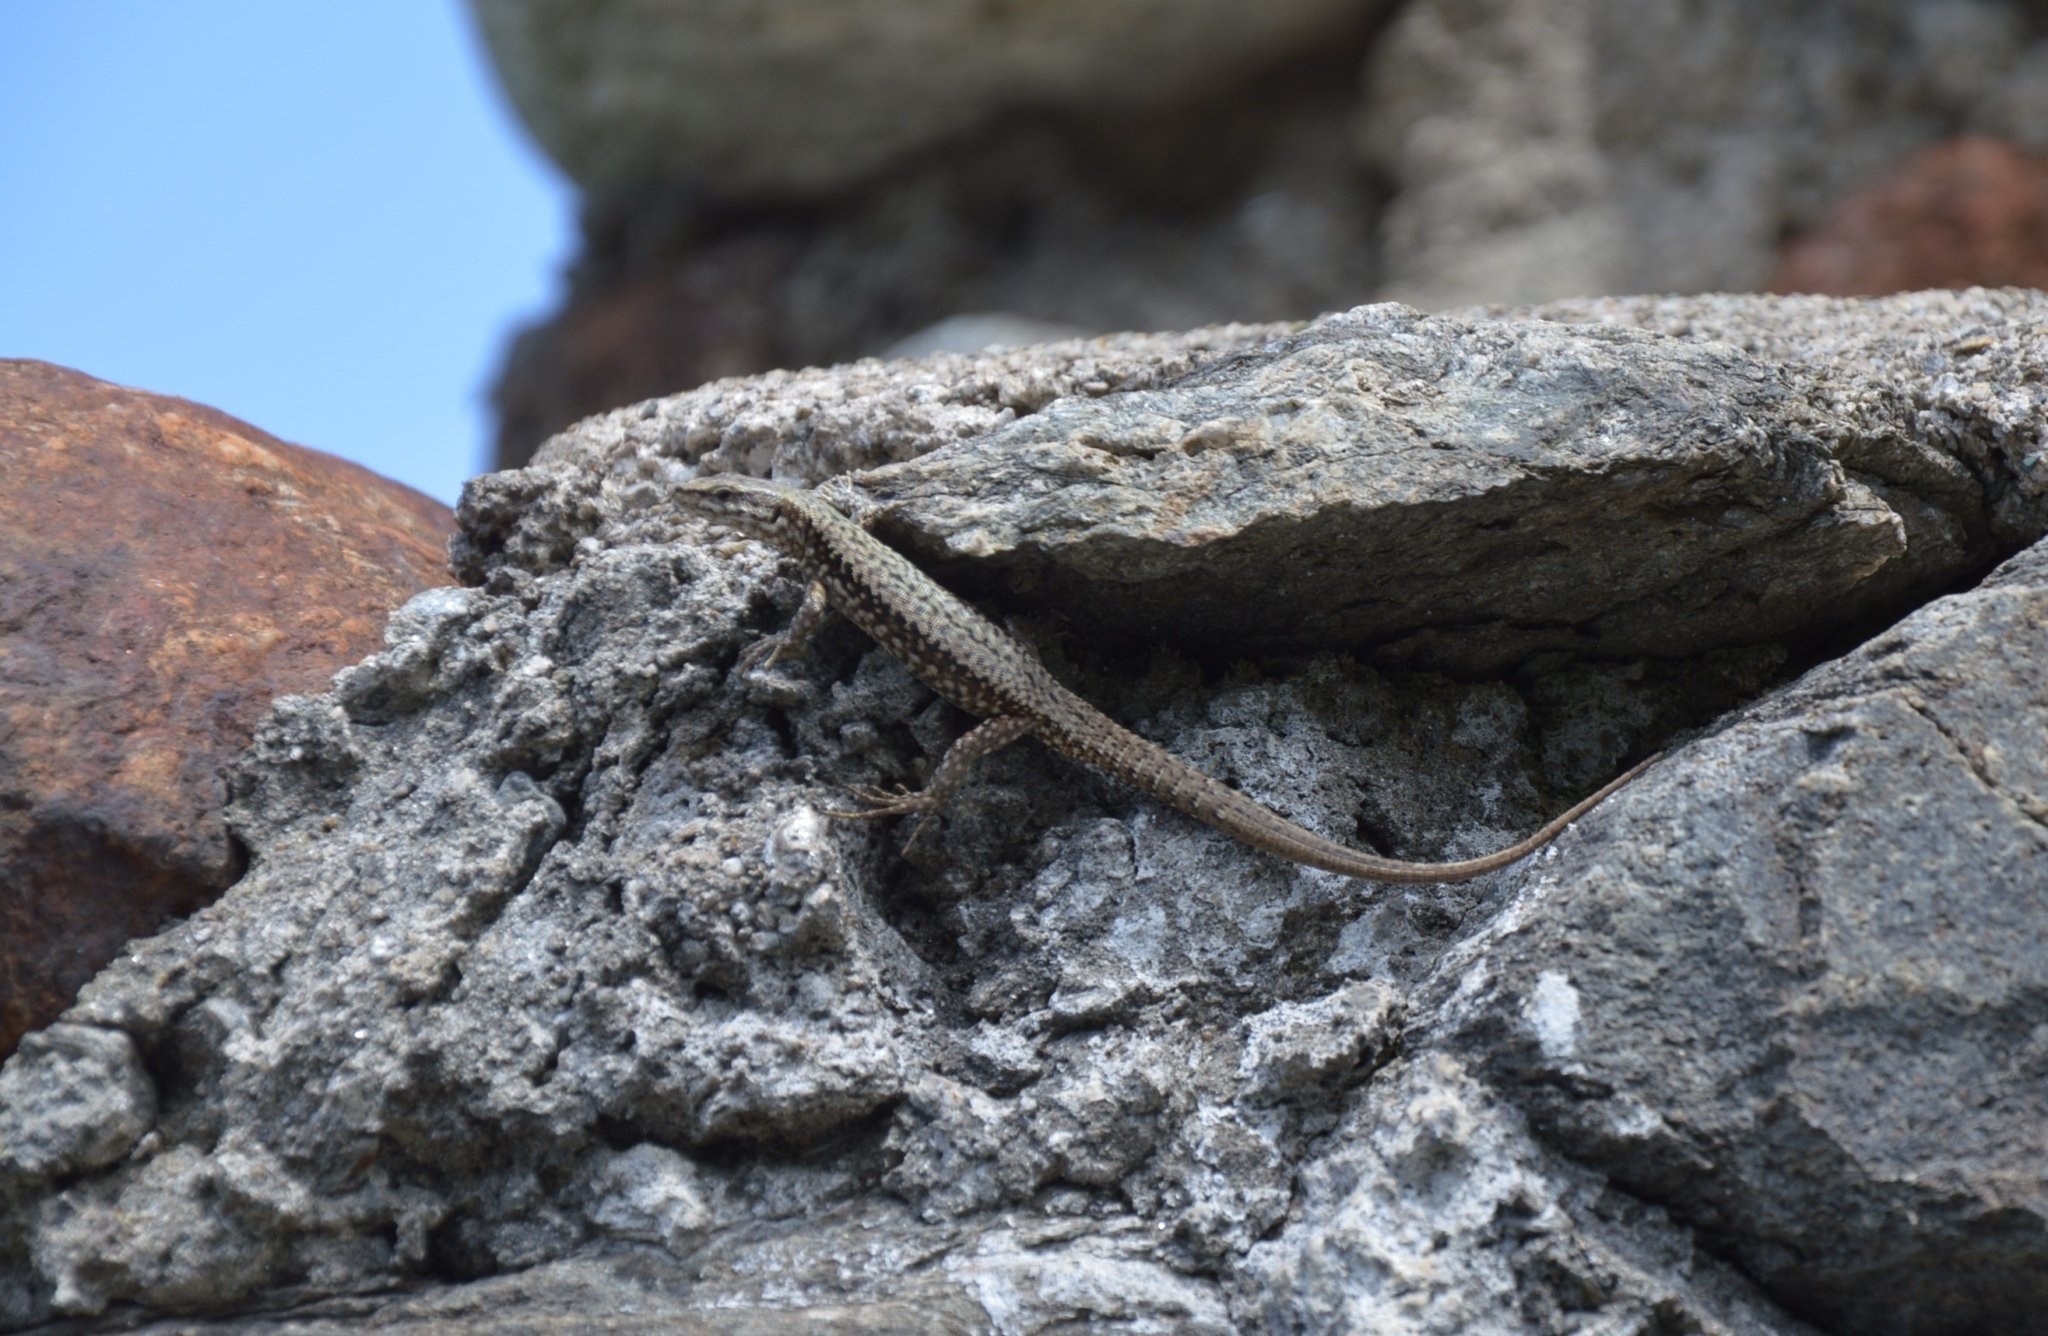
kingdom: Animalia
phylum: Chordata
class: Squamata
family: Lacertidae
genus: Podarcis
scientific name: Podarcis muralis
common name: Common wall lizard
